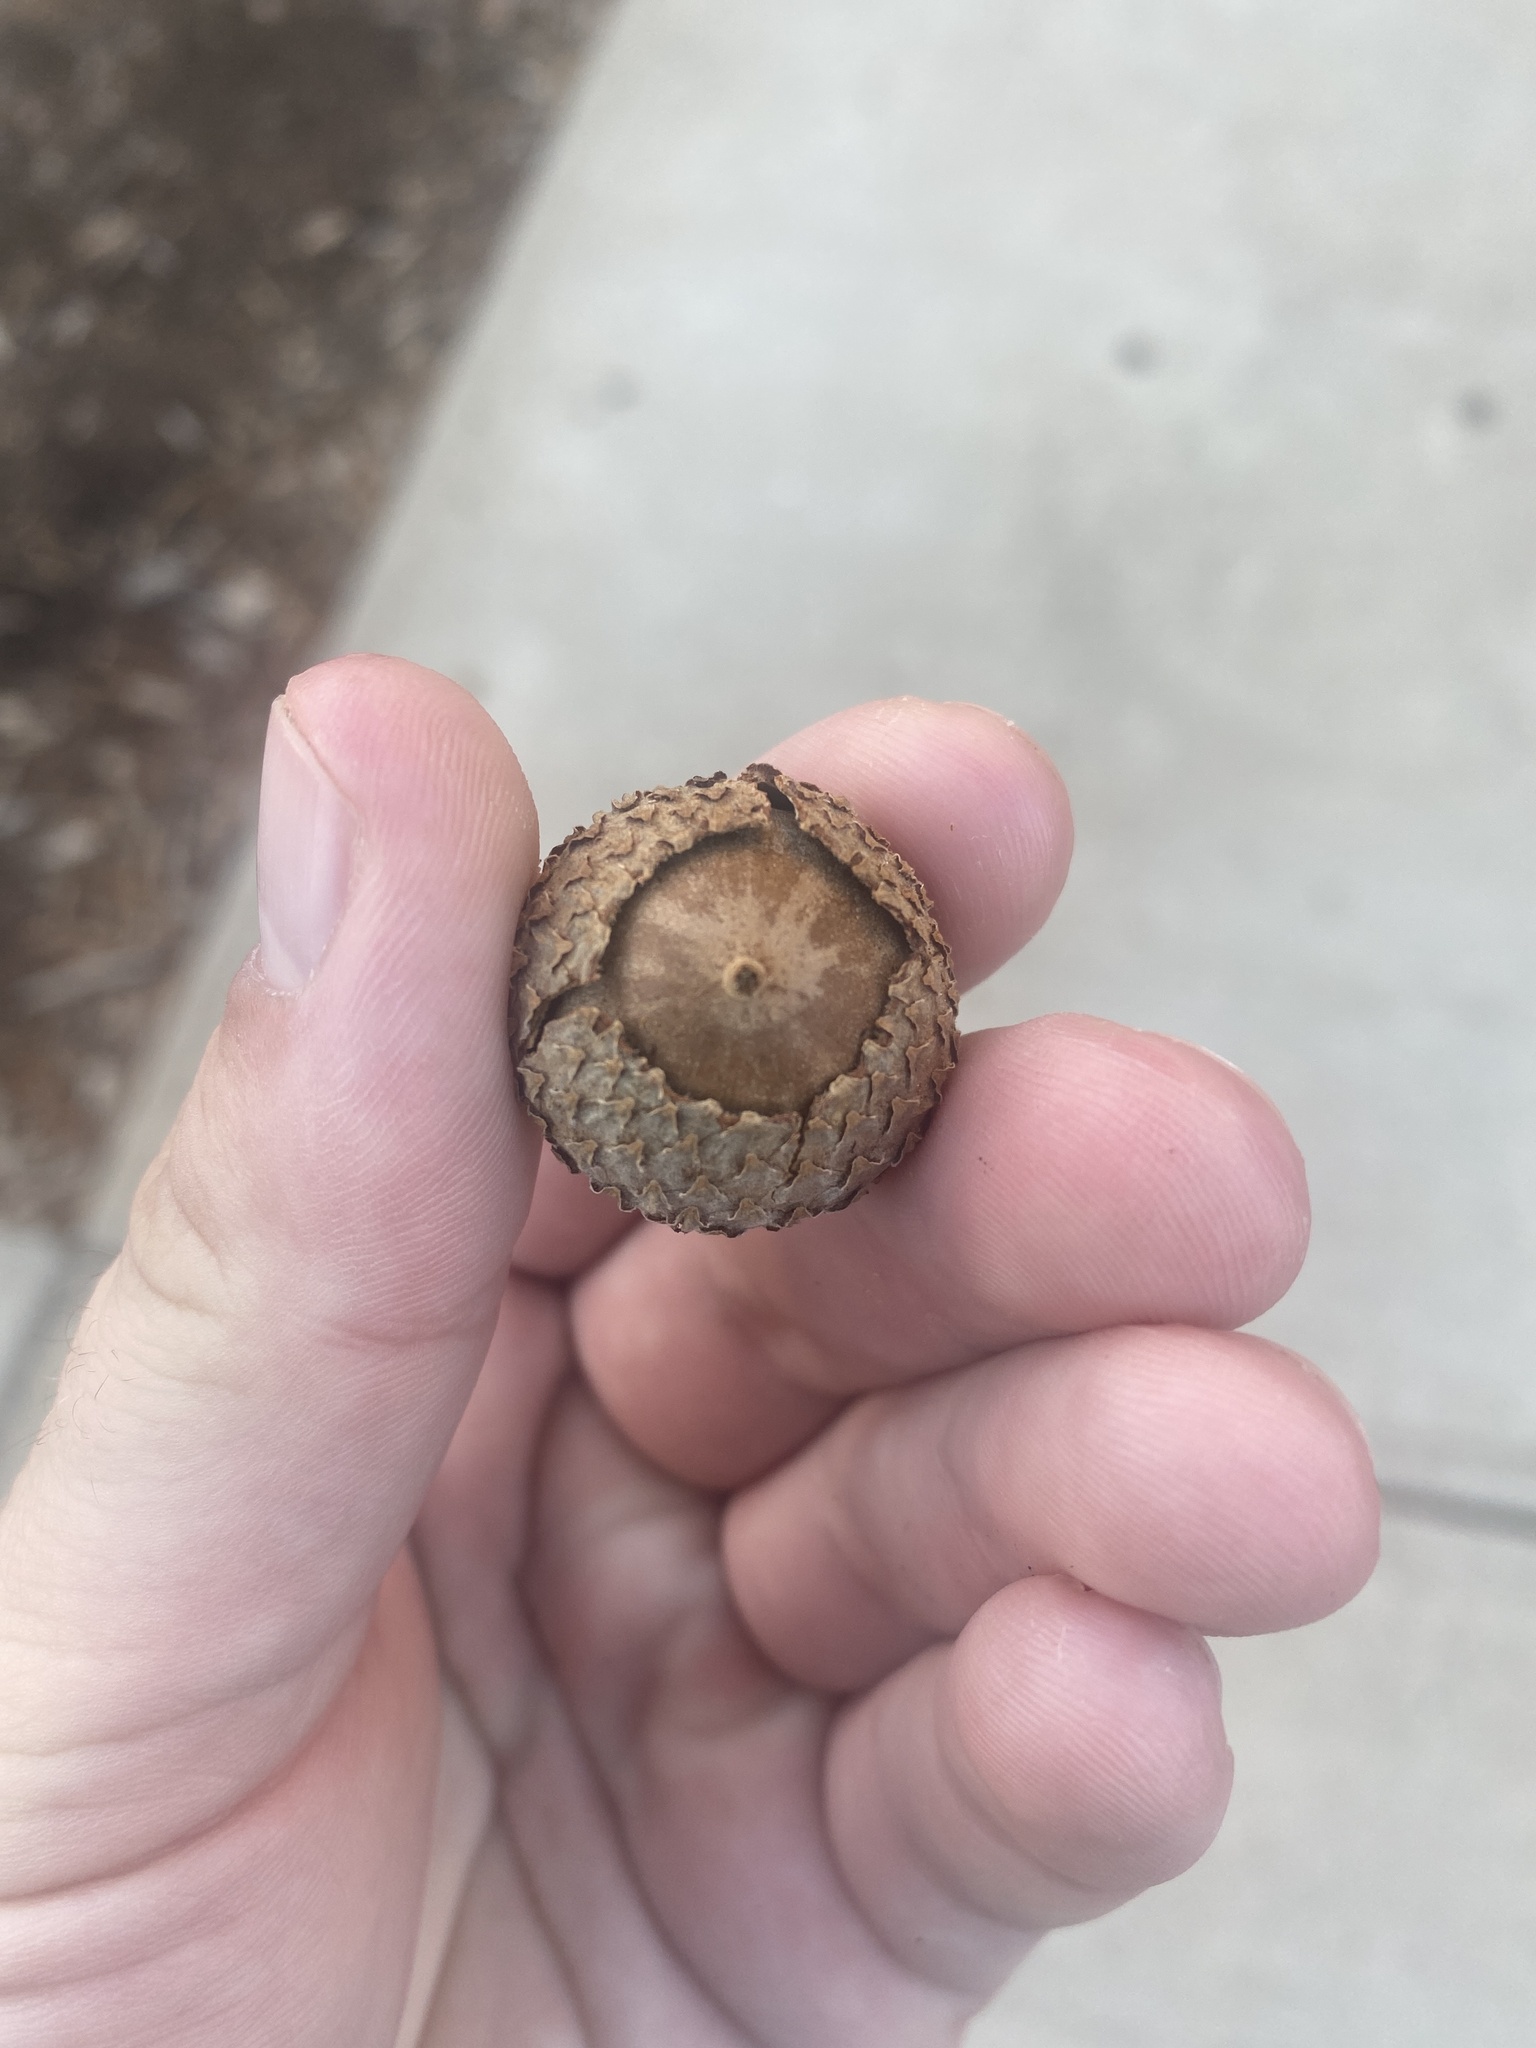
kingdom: Plantae
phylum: Tracheophyta
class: Magnoliopsida
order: Fagales
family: Fagaceae
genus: Quercus
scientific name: Quercus lyrata
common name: Overcup oak
